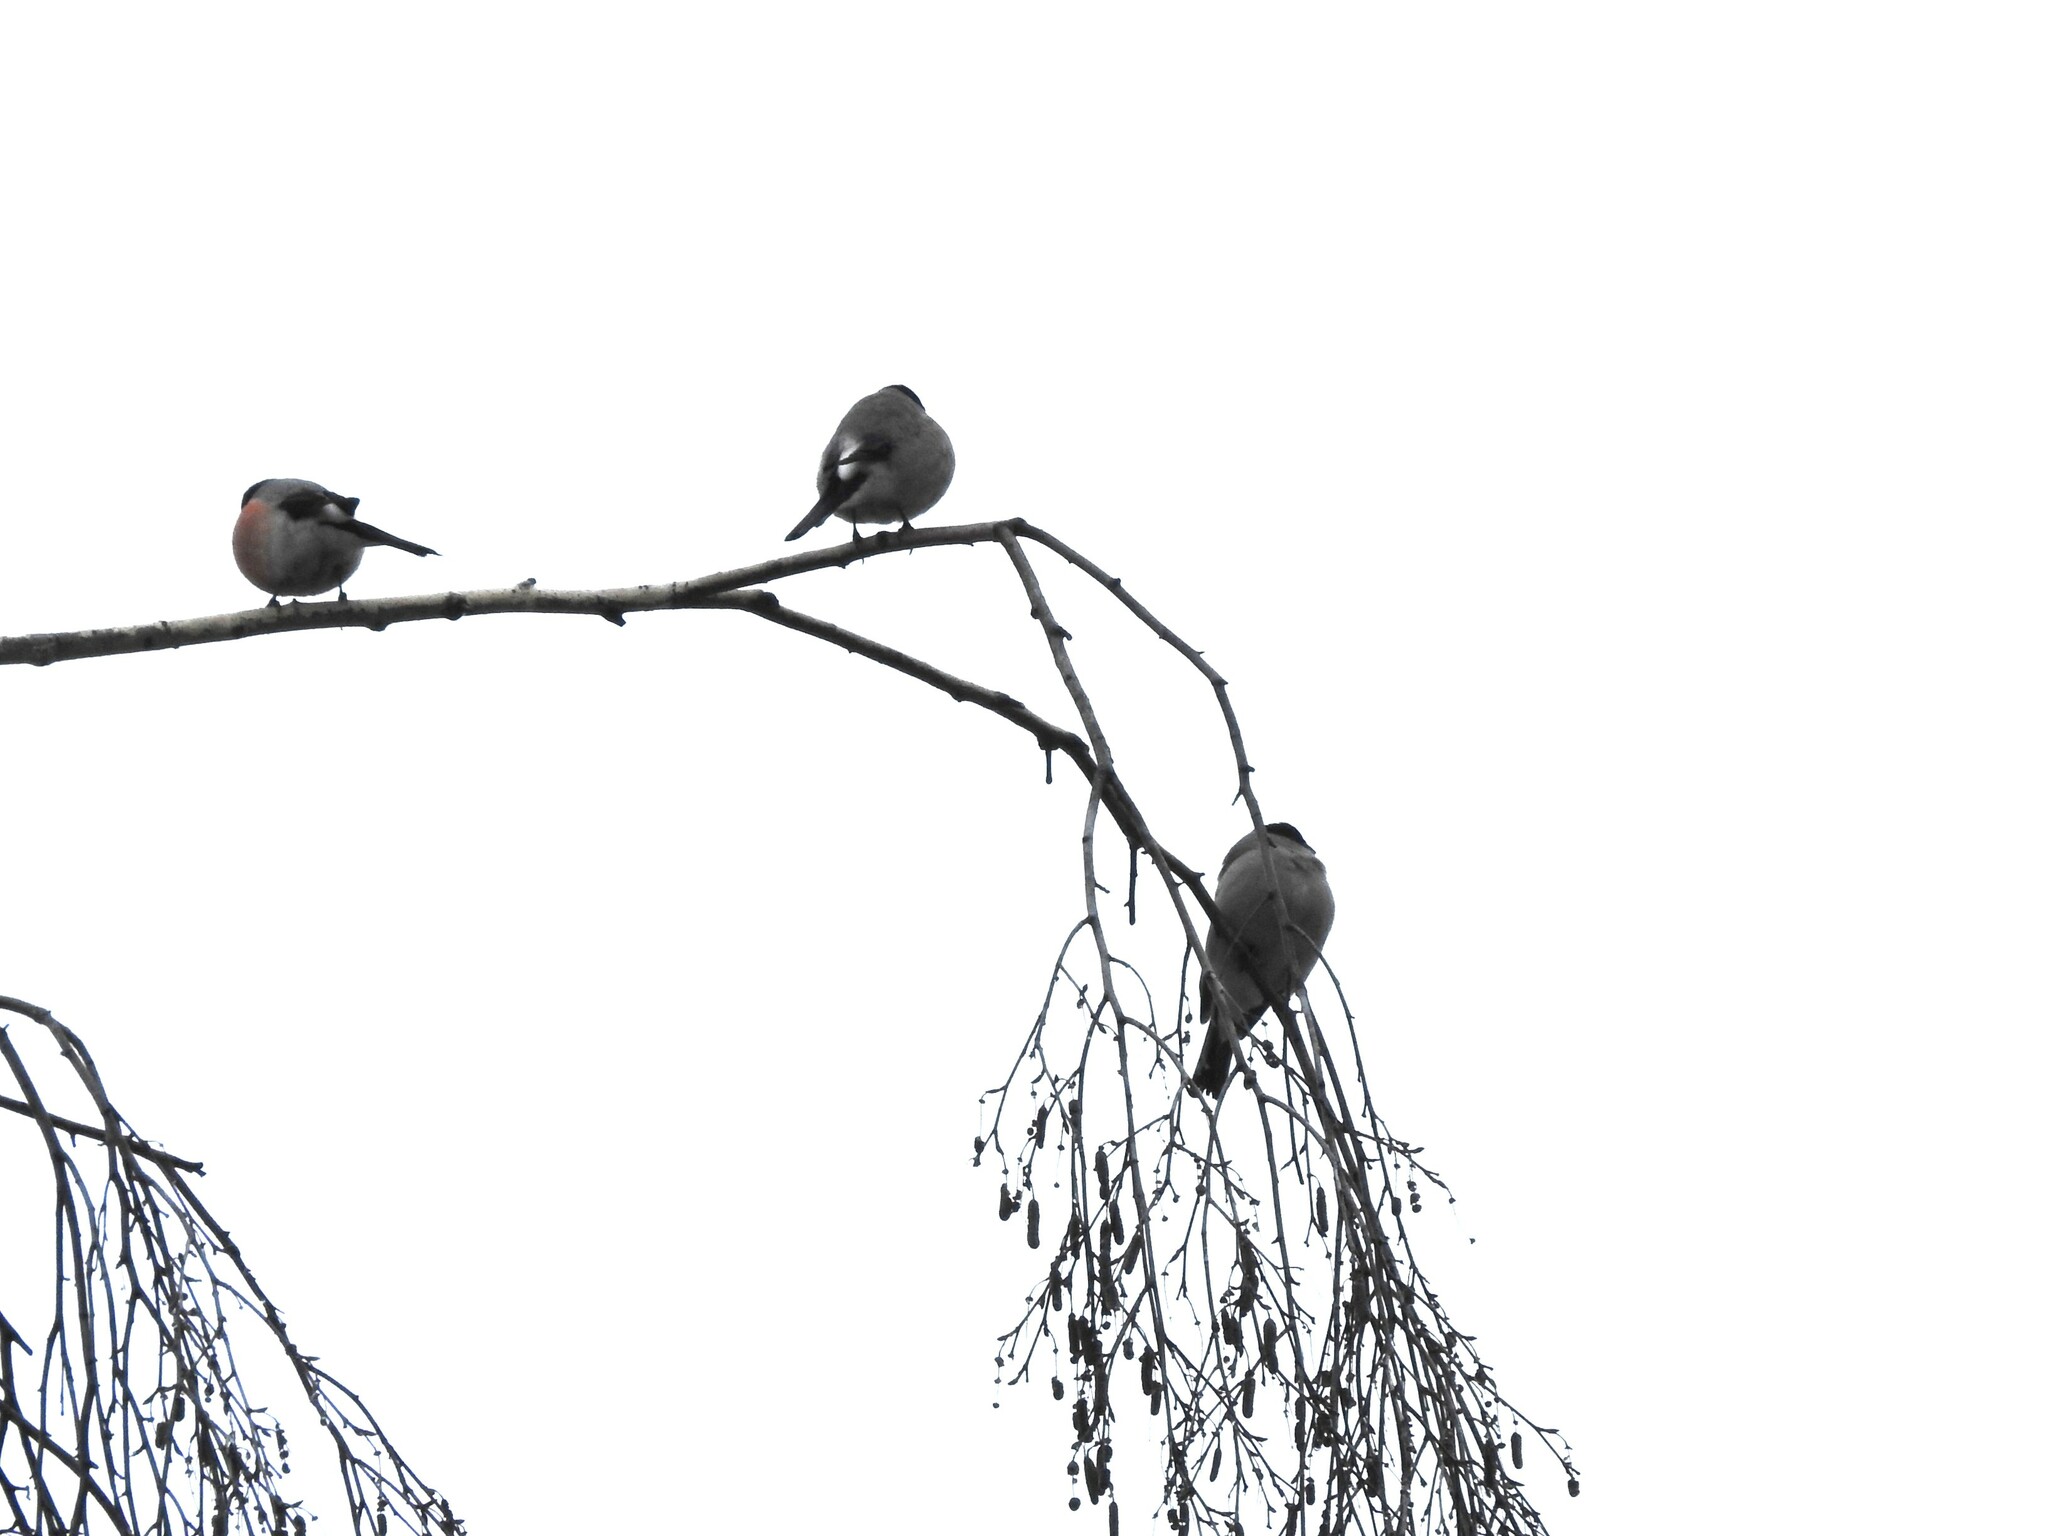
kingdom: Animalia
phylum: Chordata
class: Aves
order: Passeriformes
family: Fringillidae
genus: Pyrrhula
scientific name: Pyrrhula pyrrhula
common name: Eurasian bullfinch
